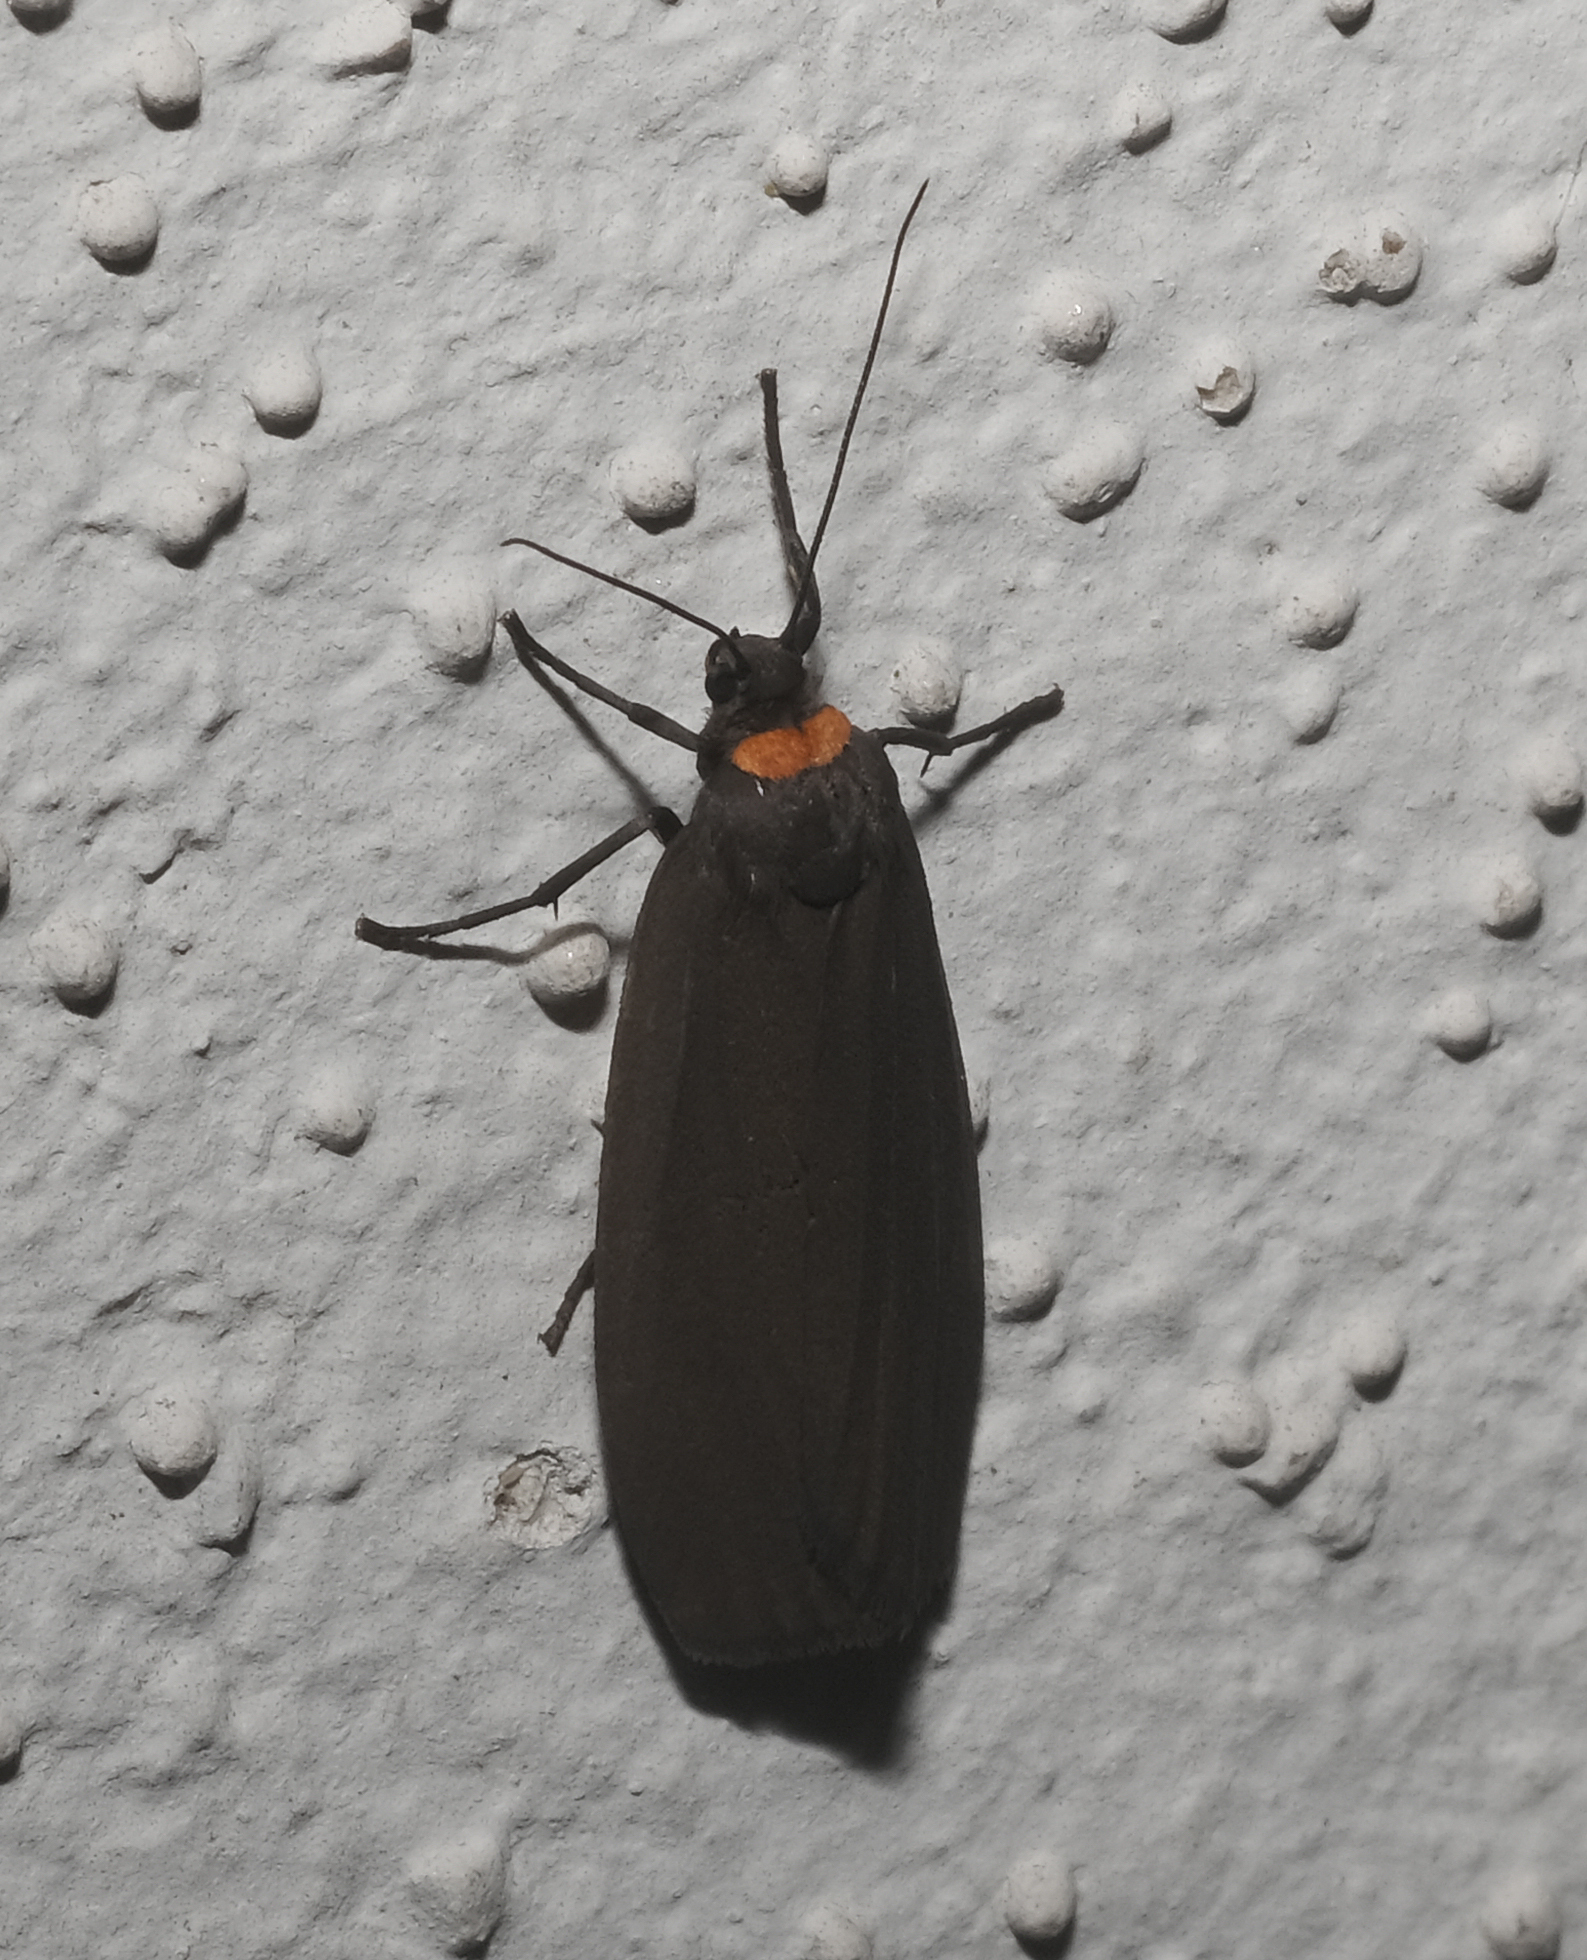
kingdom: Animalia
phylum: Arthropoda
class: Insecta
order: Lepidoptera
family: Erebidae
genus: Atolmis
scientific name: Atolmis rubricollis
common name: Red-necked footman
